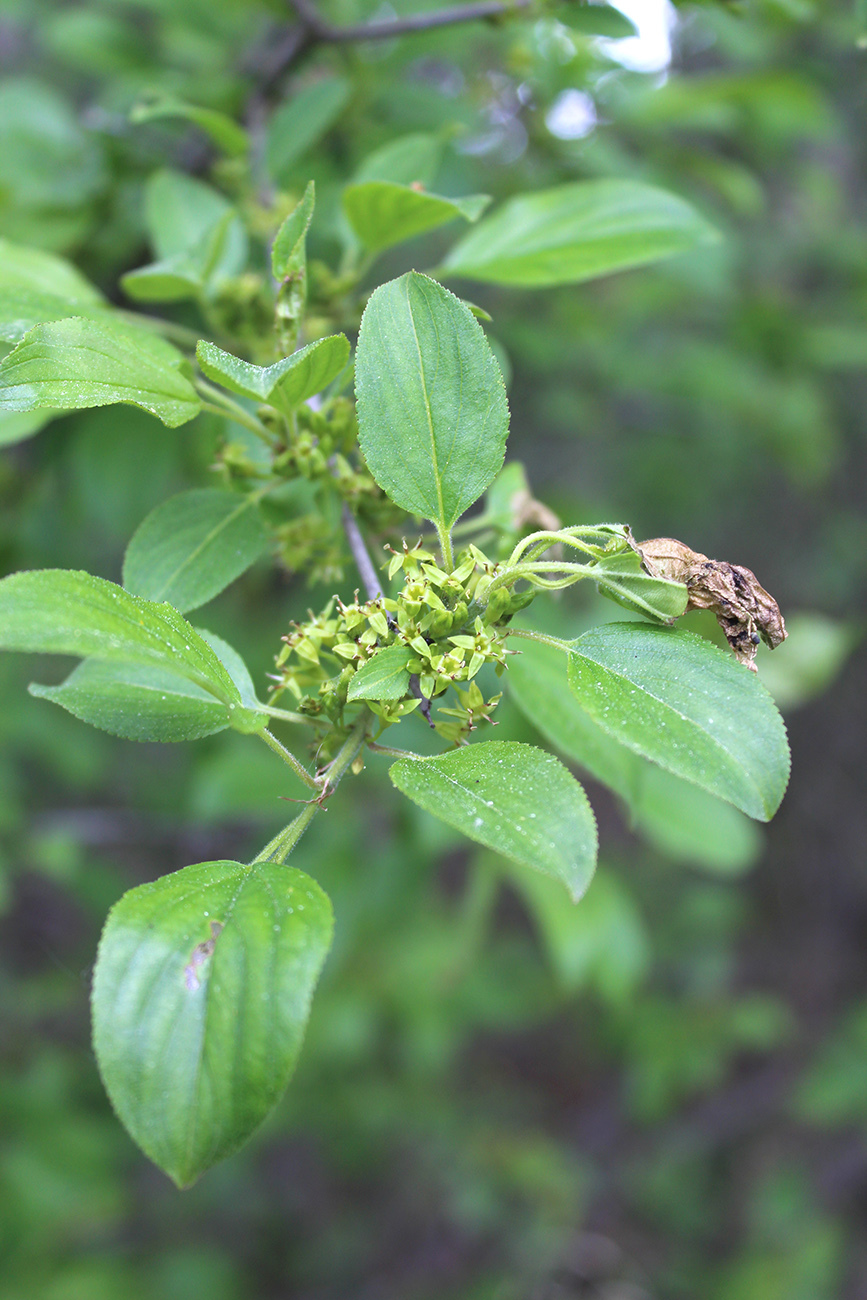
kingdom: Plantae
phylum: Tracheophyta
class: Magnoliopsida
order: Rosales
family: Rhamnaceae
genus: Rhamnus
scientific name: Rhamnus cathartica
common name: Common buckthorn
